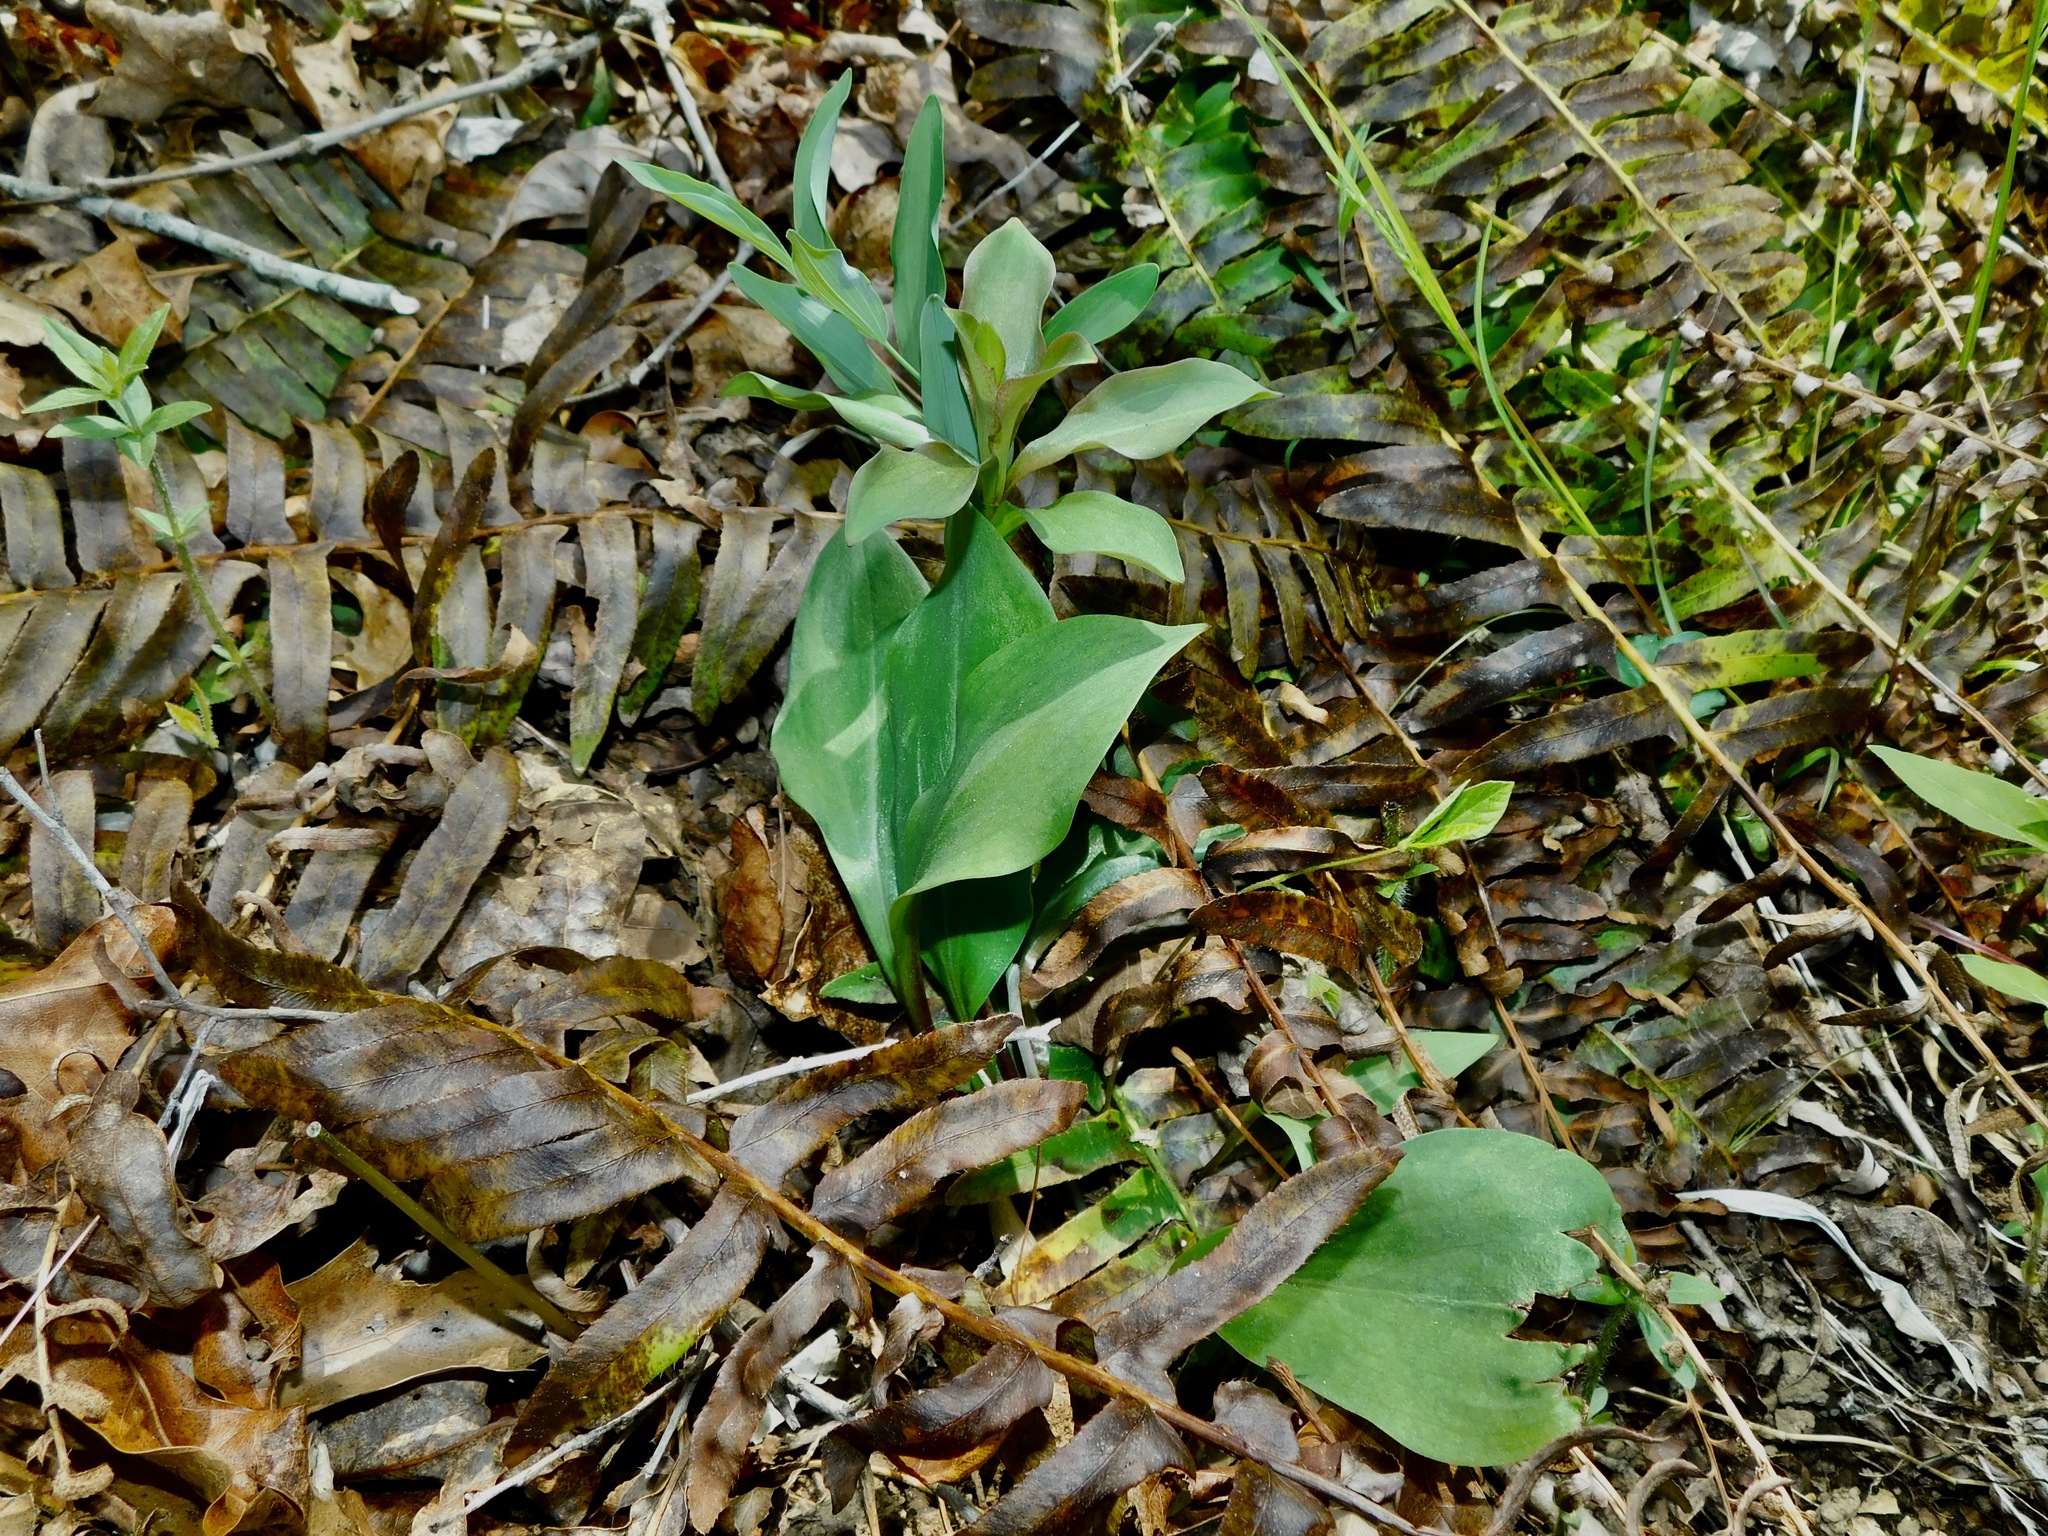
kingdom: Plantae
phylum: Tracheophyta
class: Liliopsida
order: Liliales
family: Liliaceae
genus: Lilium
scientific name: Lilium michauxii
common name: Carolina lily
